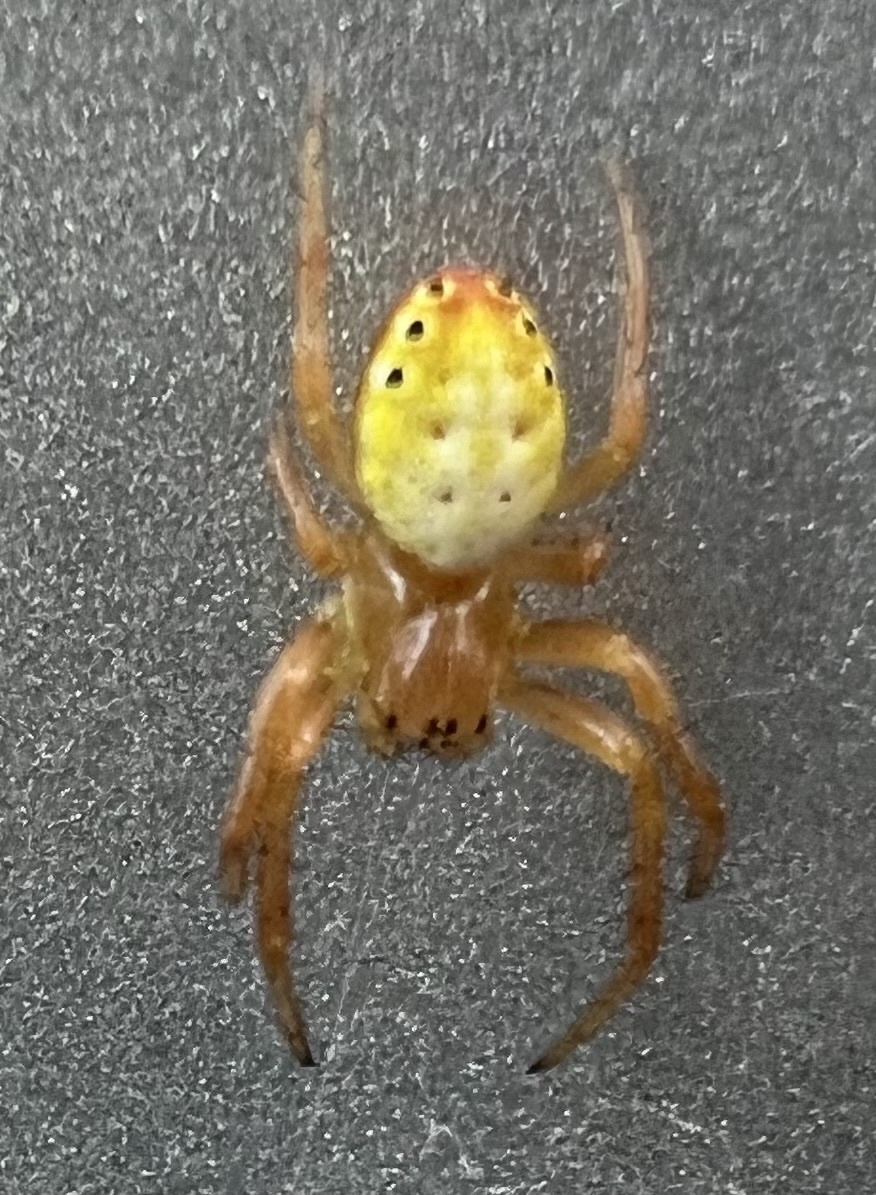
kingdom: Animalia
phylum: Arthropoda
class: Arachnida
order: Araneae
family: Araneidae
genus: Araniella
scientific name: Araniella displicata
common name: Sixspotted orb weaver
